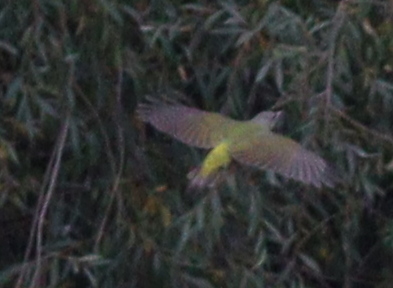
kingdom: Animalia
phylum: Chordata
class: Aves
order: Piciformes
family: Picidae
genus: Picus
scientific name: Picus canus
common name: Grey-headed woodpecker
